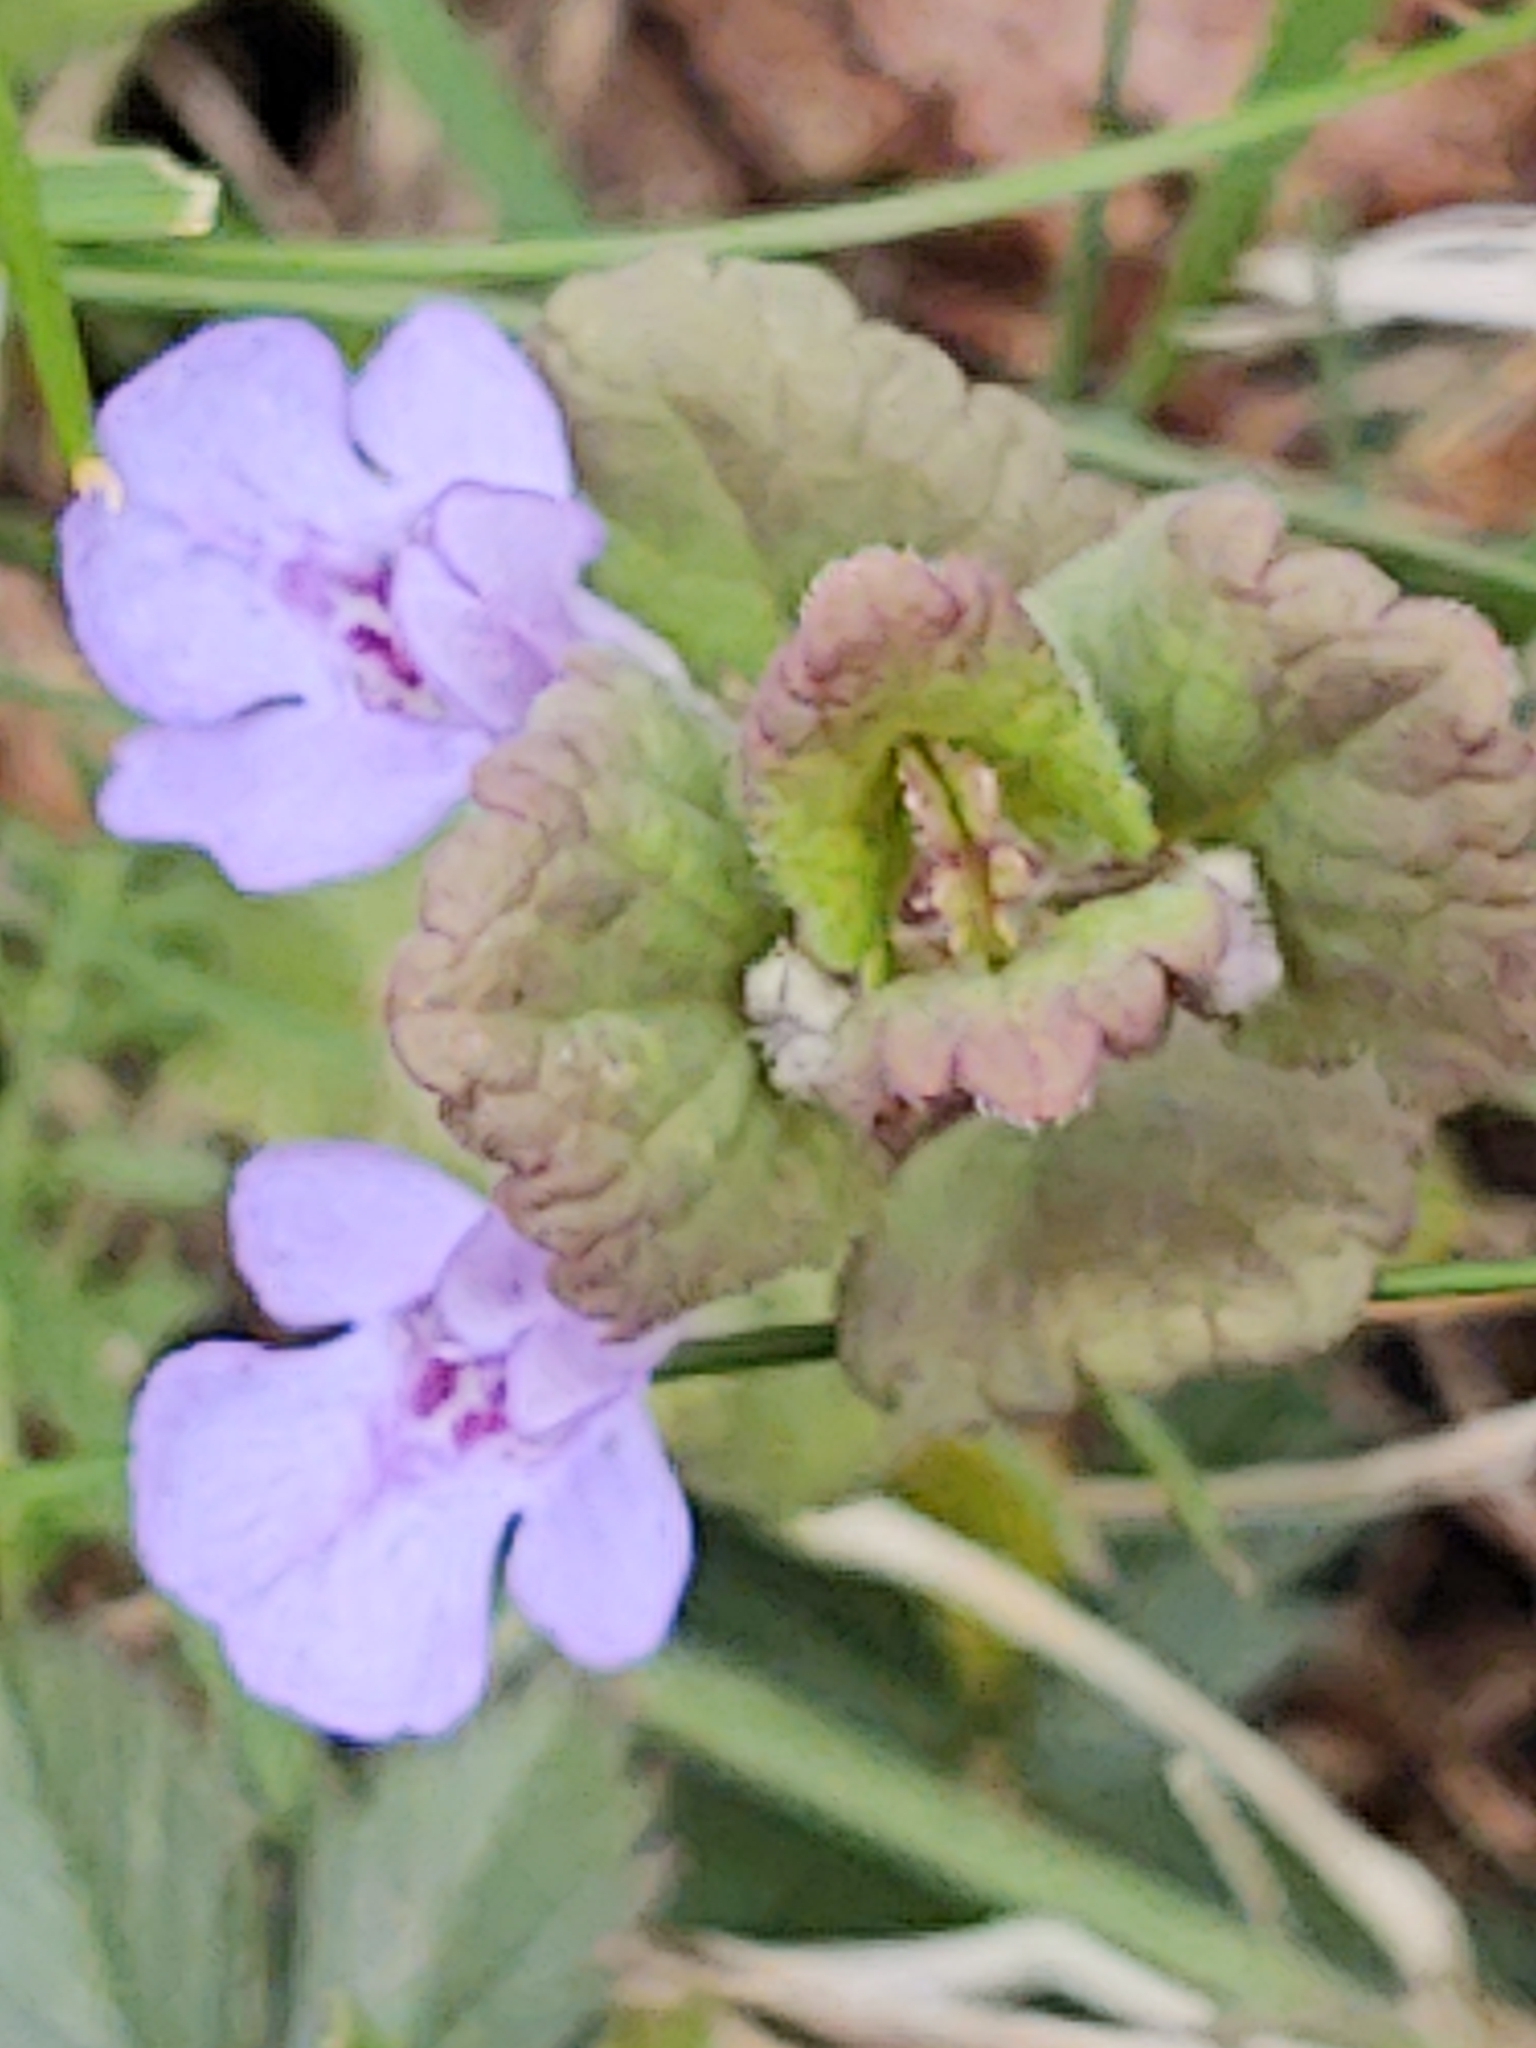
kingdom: Plantae
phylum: Tracheophyta
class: Magnoliopsida
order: Lamiales
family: Lamiaceae
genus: Glechoma
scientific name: Glechoma hederacea
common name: Ground ivy
